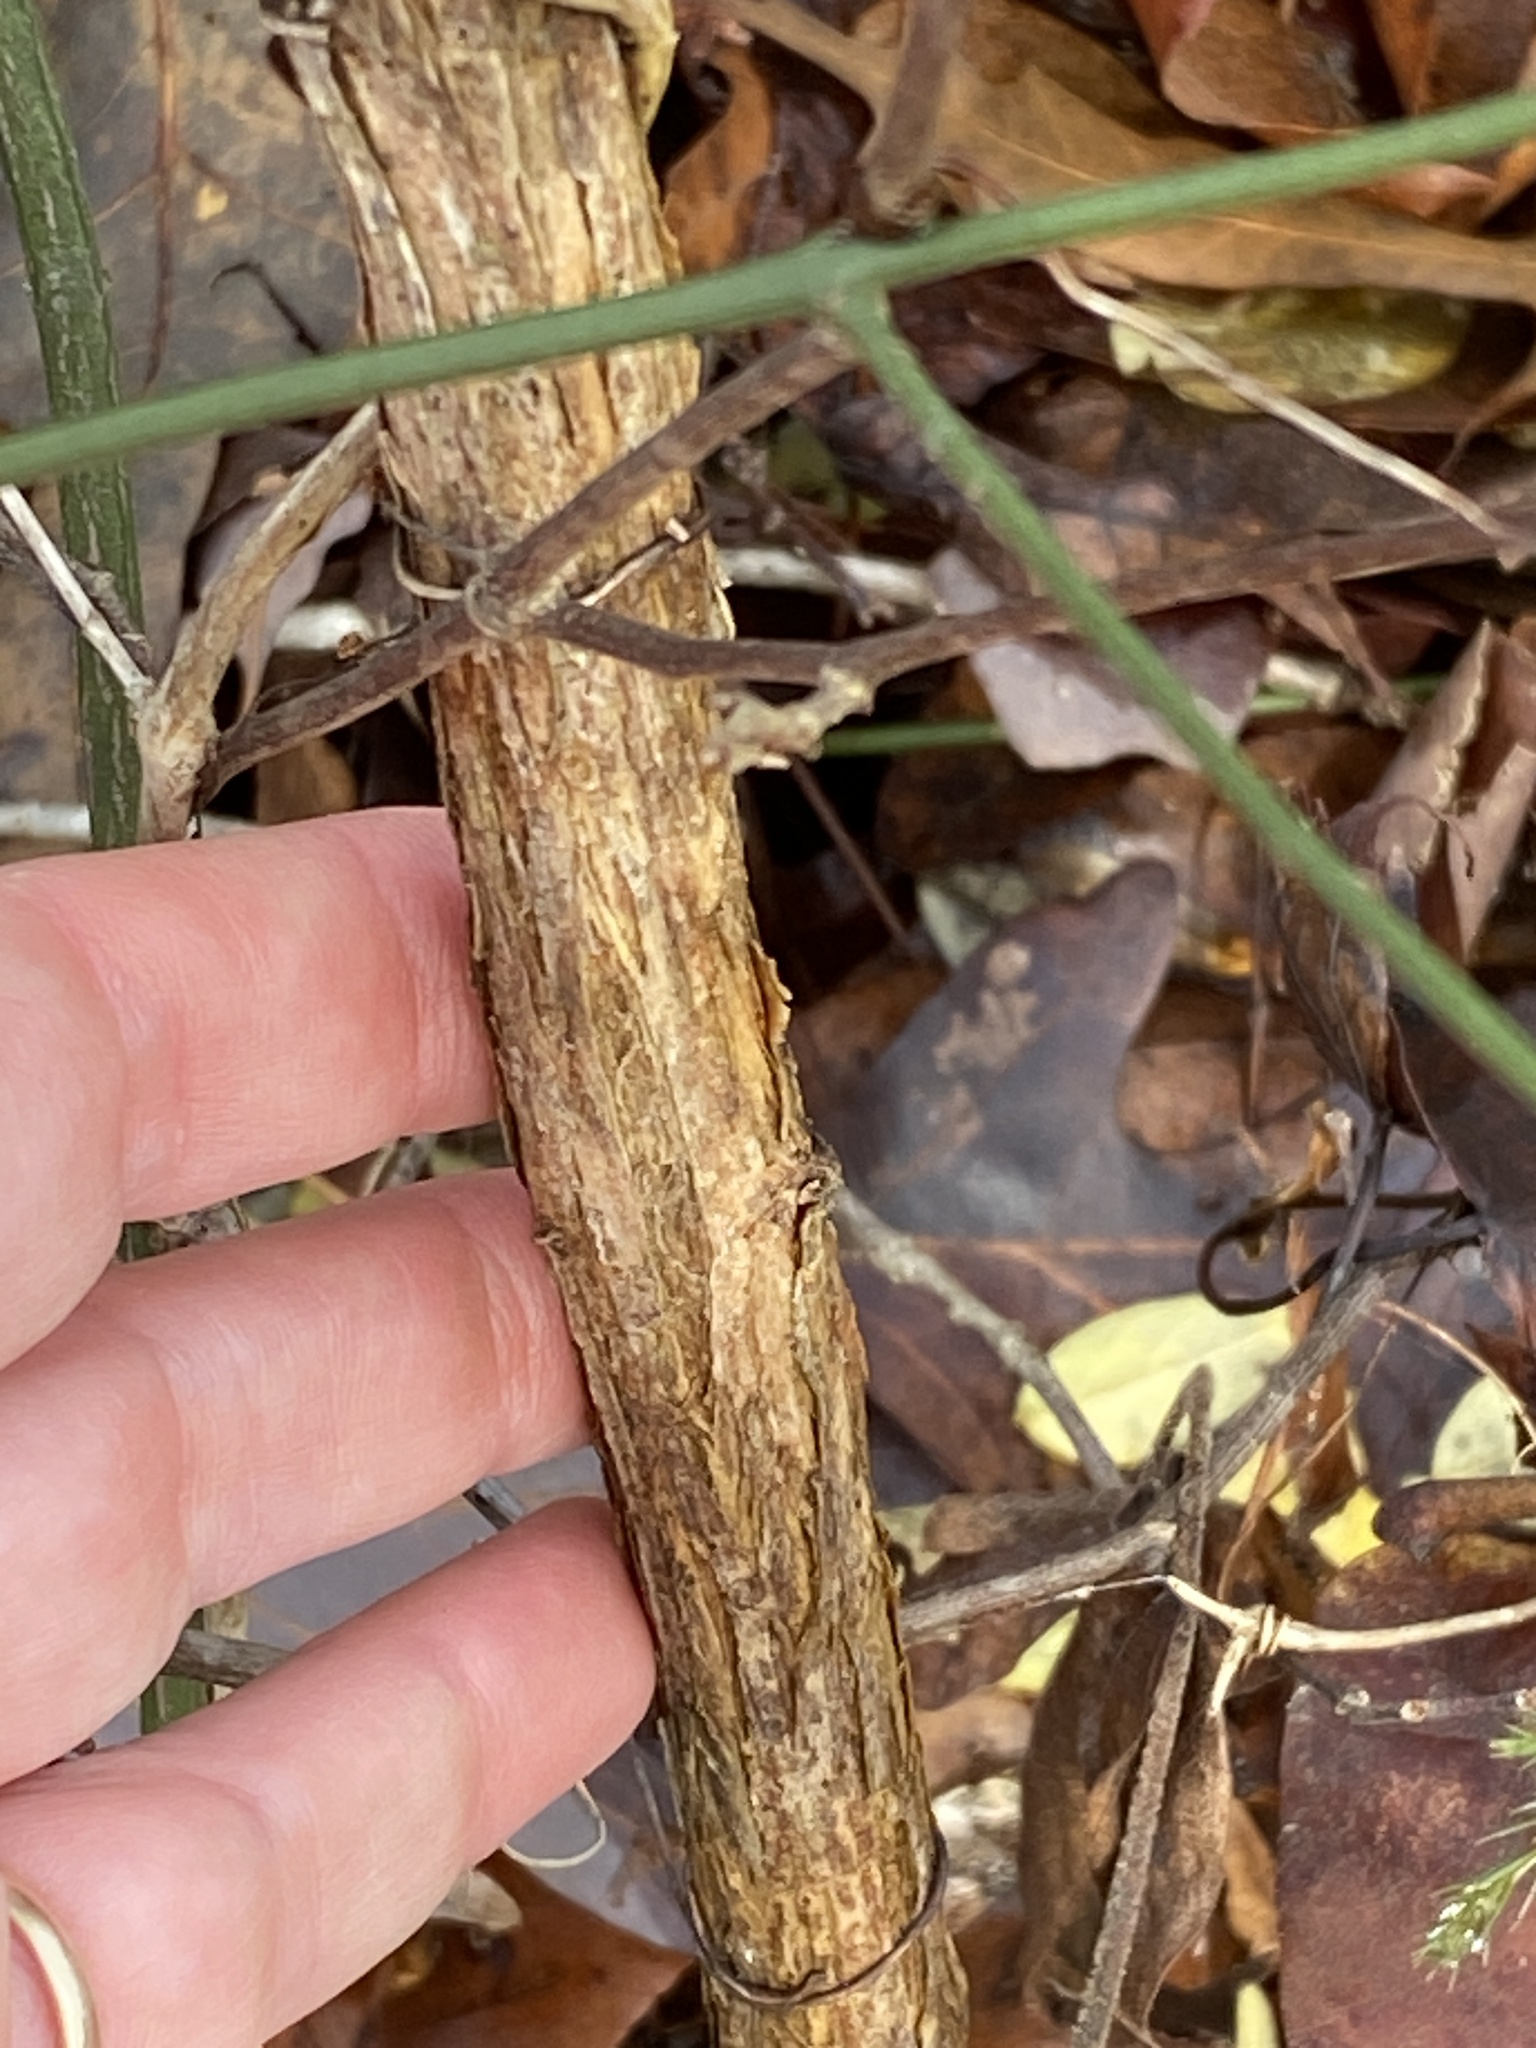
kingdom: Plantae
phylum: Tracheophyta
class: Magnoliopsida
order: Dipsacales
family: Caprifoliaceae
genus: Lonicera
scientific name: Lonicera fragrantissima
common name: Fragrant honeysuckle
